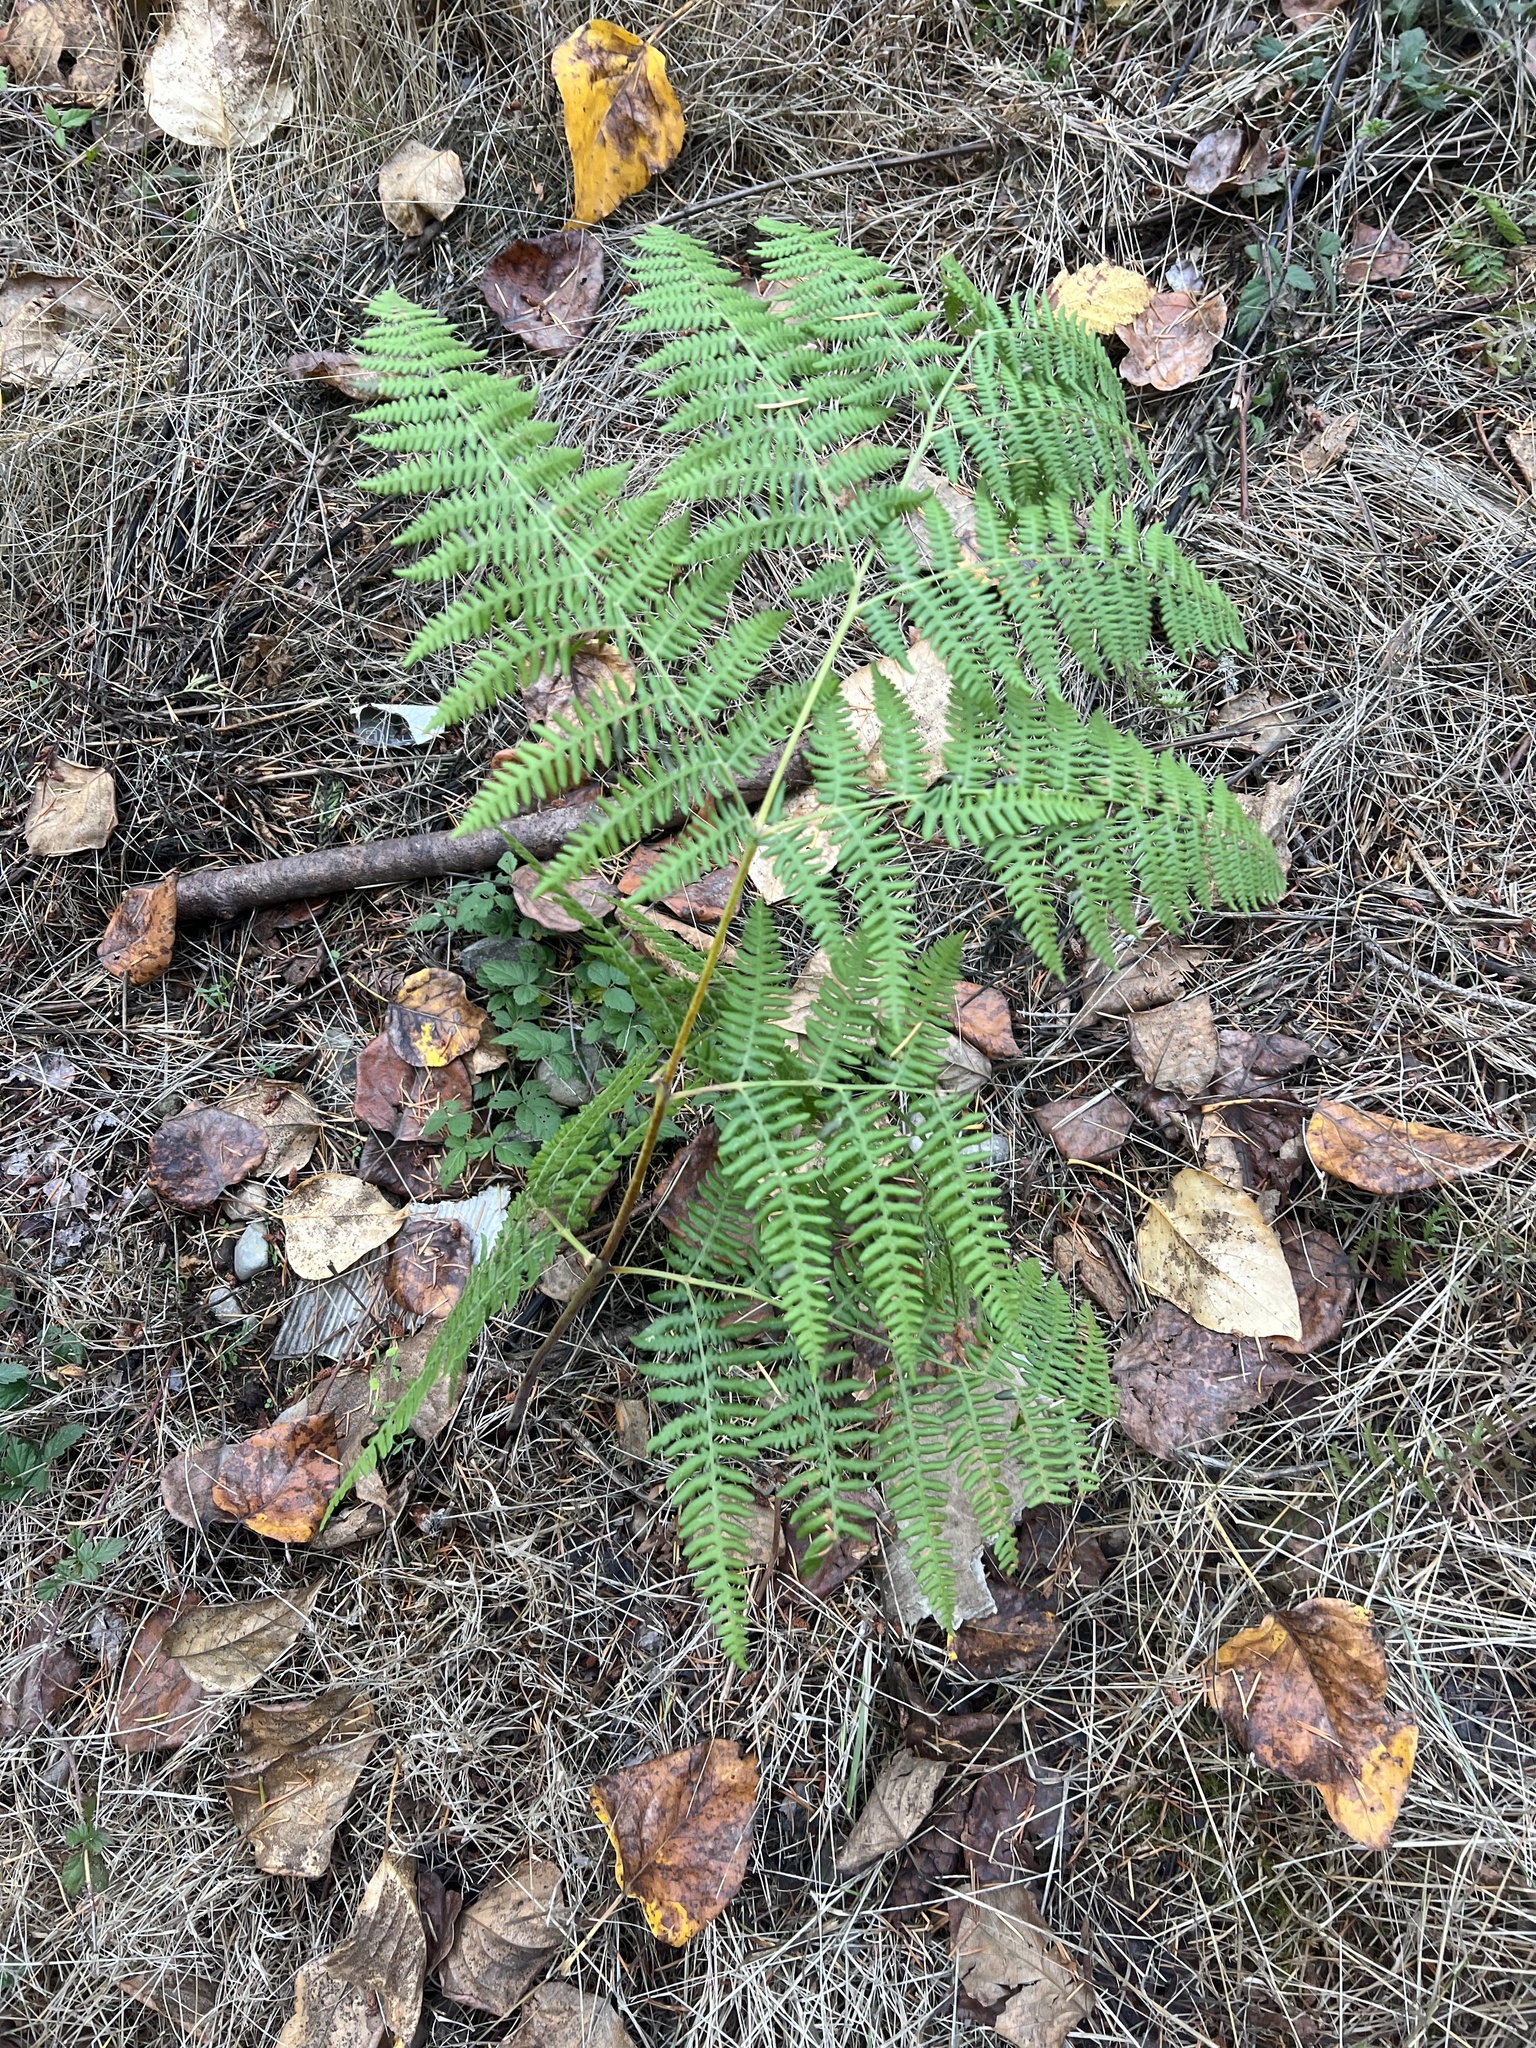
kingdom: Plantae
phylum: Tracheophyta
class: Polypodiopsida
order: Polypodiales
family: Dennstaedtiaceae
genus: Pteridium
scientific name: Pteridium aquilinum
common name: Bracken
